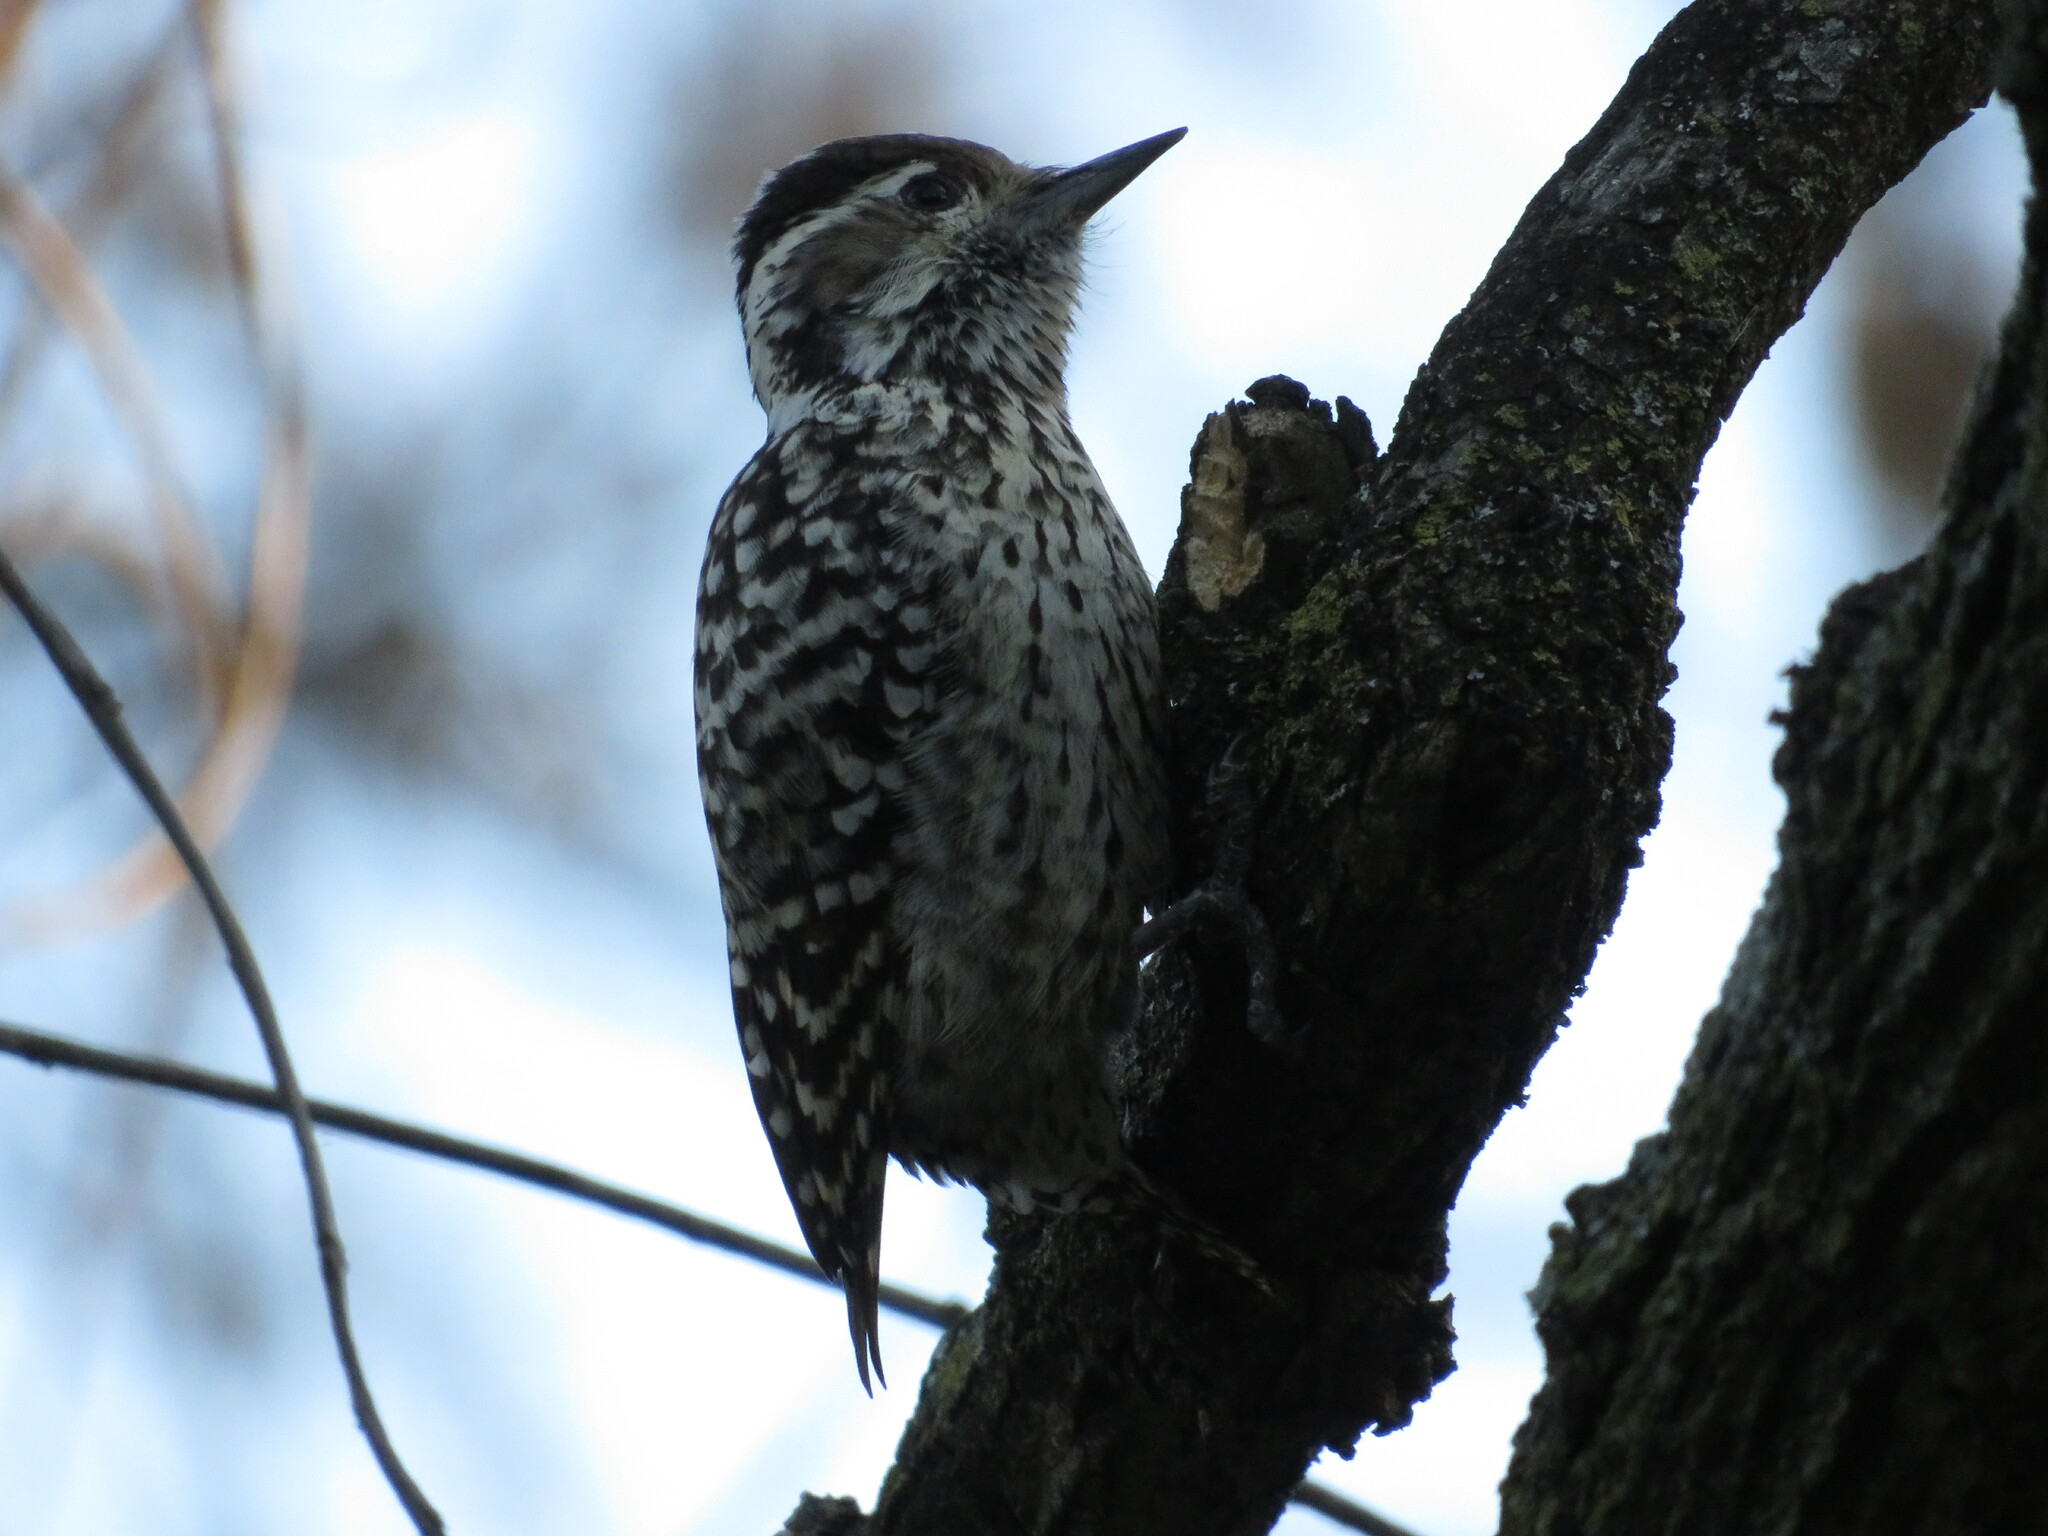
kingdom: Animalia
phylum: Chordata
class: Aves
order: Piciformes
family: Picidae
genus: Veniliornis
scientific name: Veniliornis mixtus
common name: Checkered woodpecker
